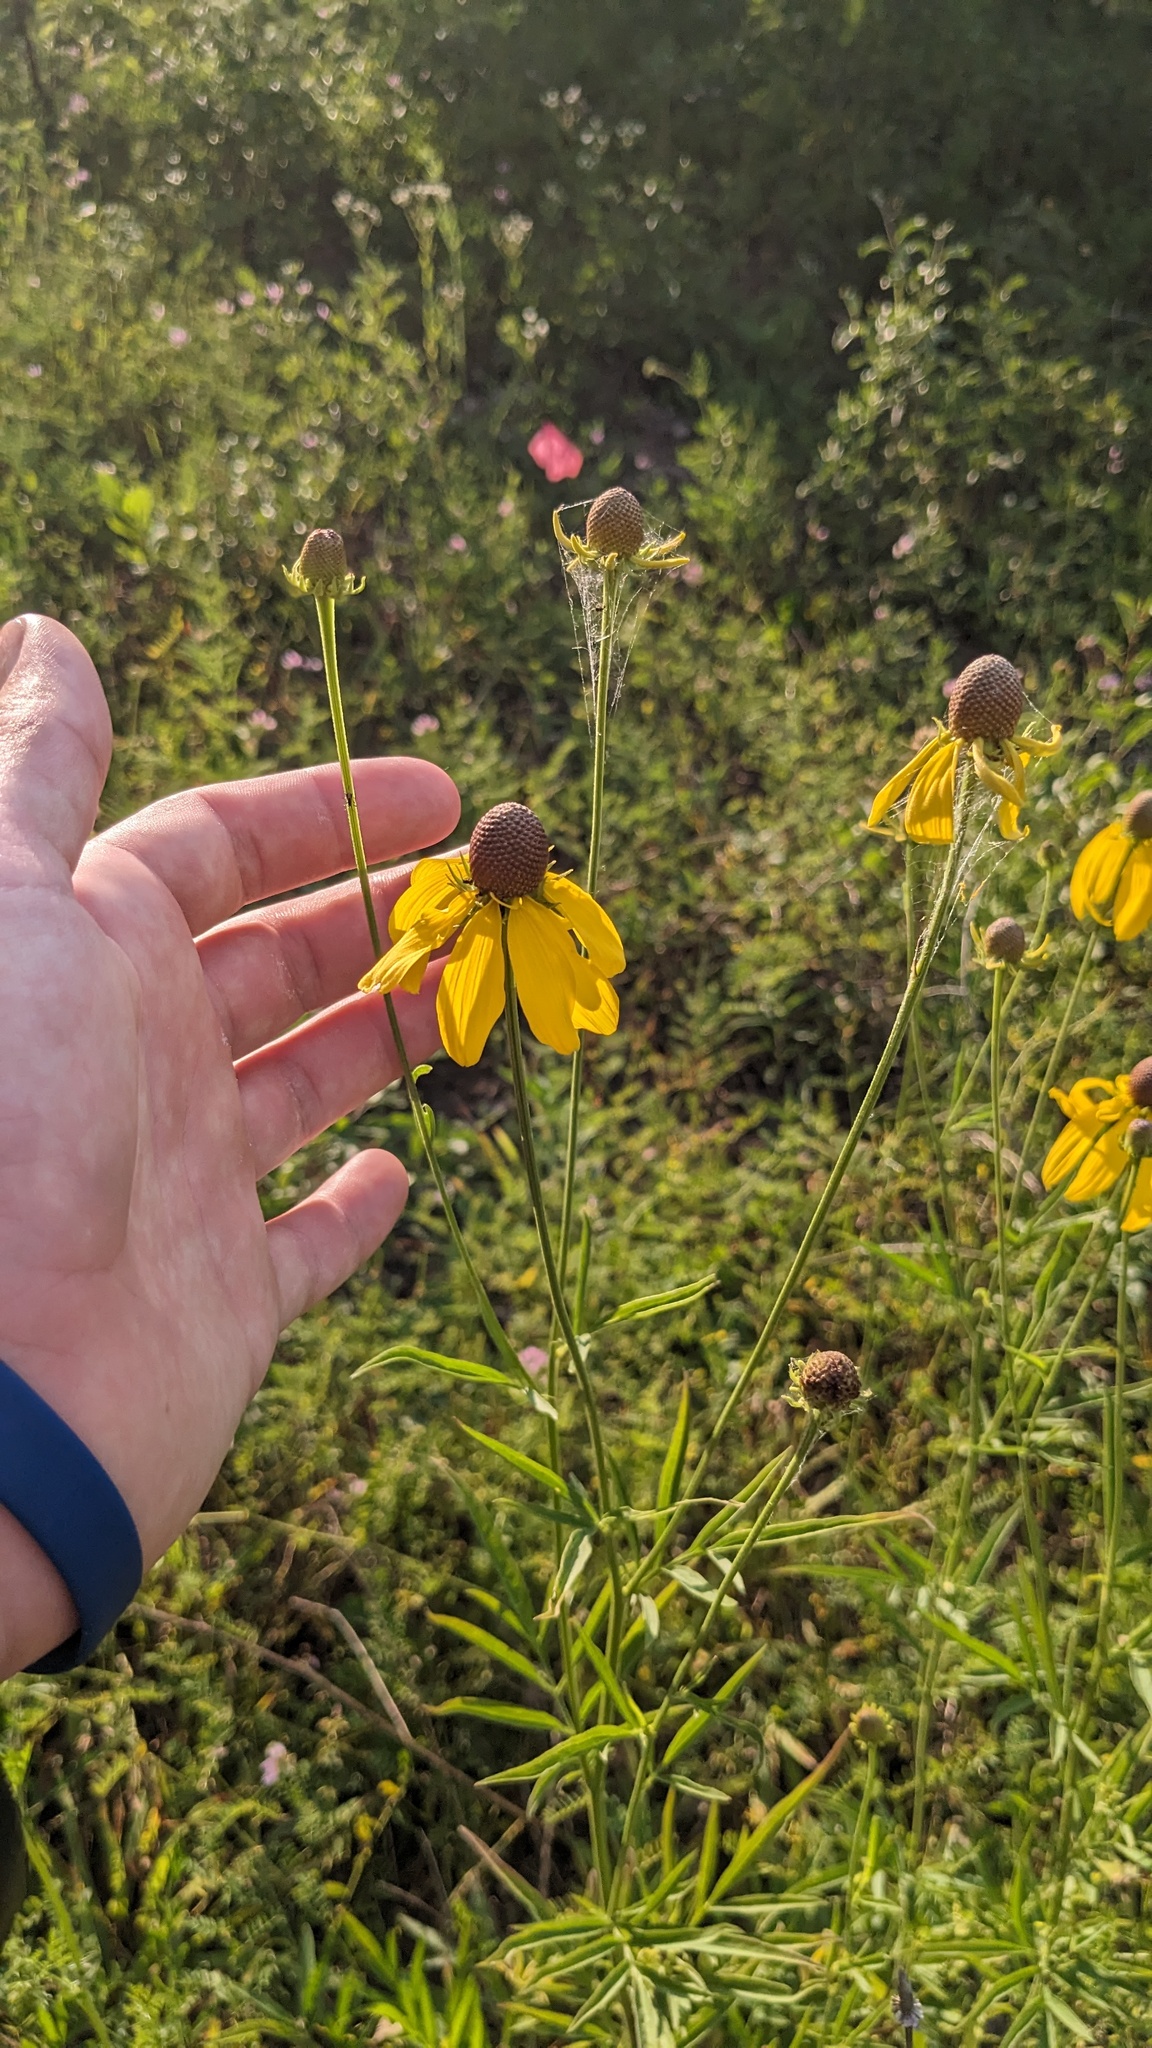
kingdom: Plantae
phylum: Tracheophyta
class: Magnoliopsida
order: Asterales
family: Asteraceae
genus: Ratibida
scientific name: Ratibida pinnata
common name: Drooping prairie-coneflower
